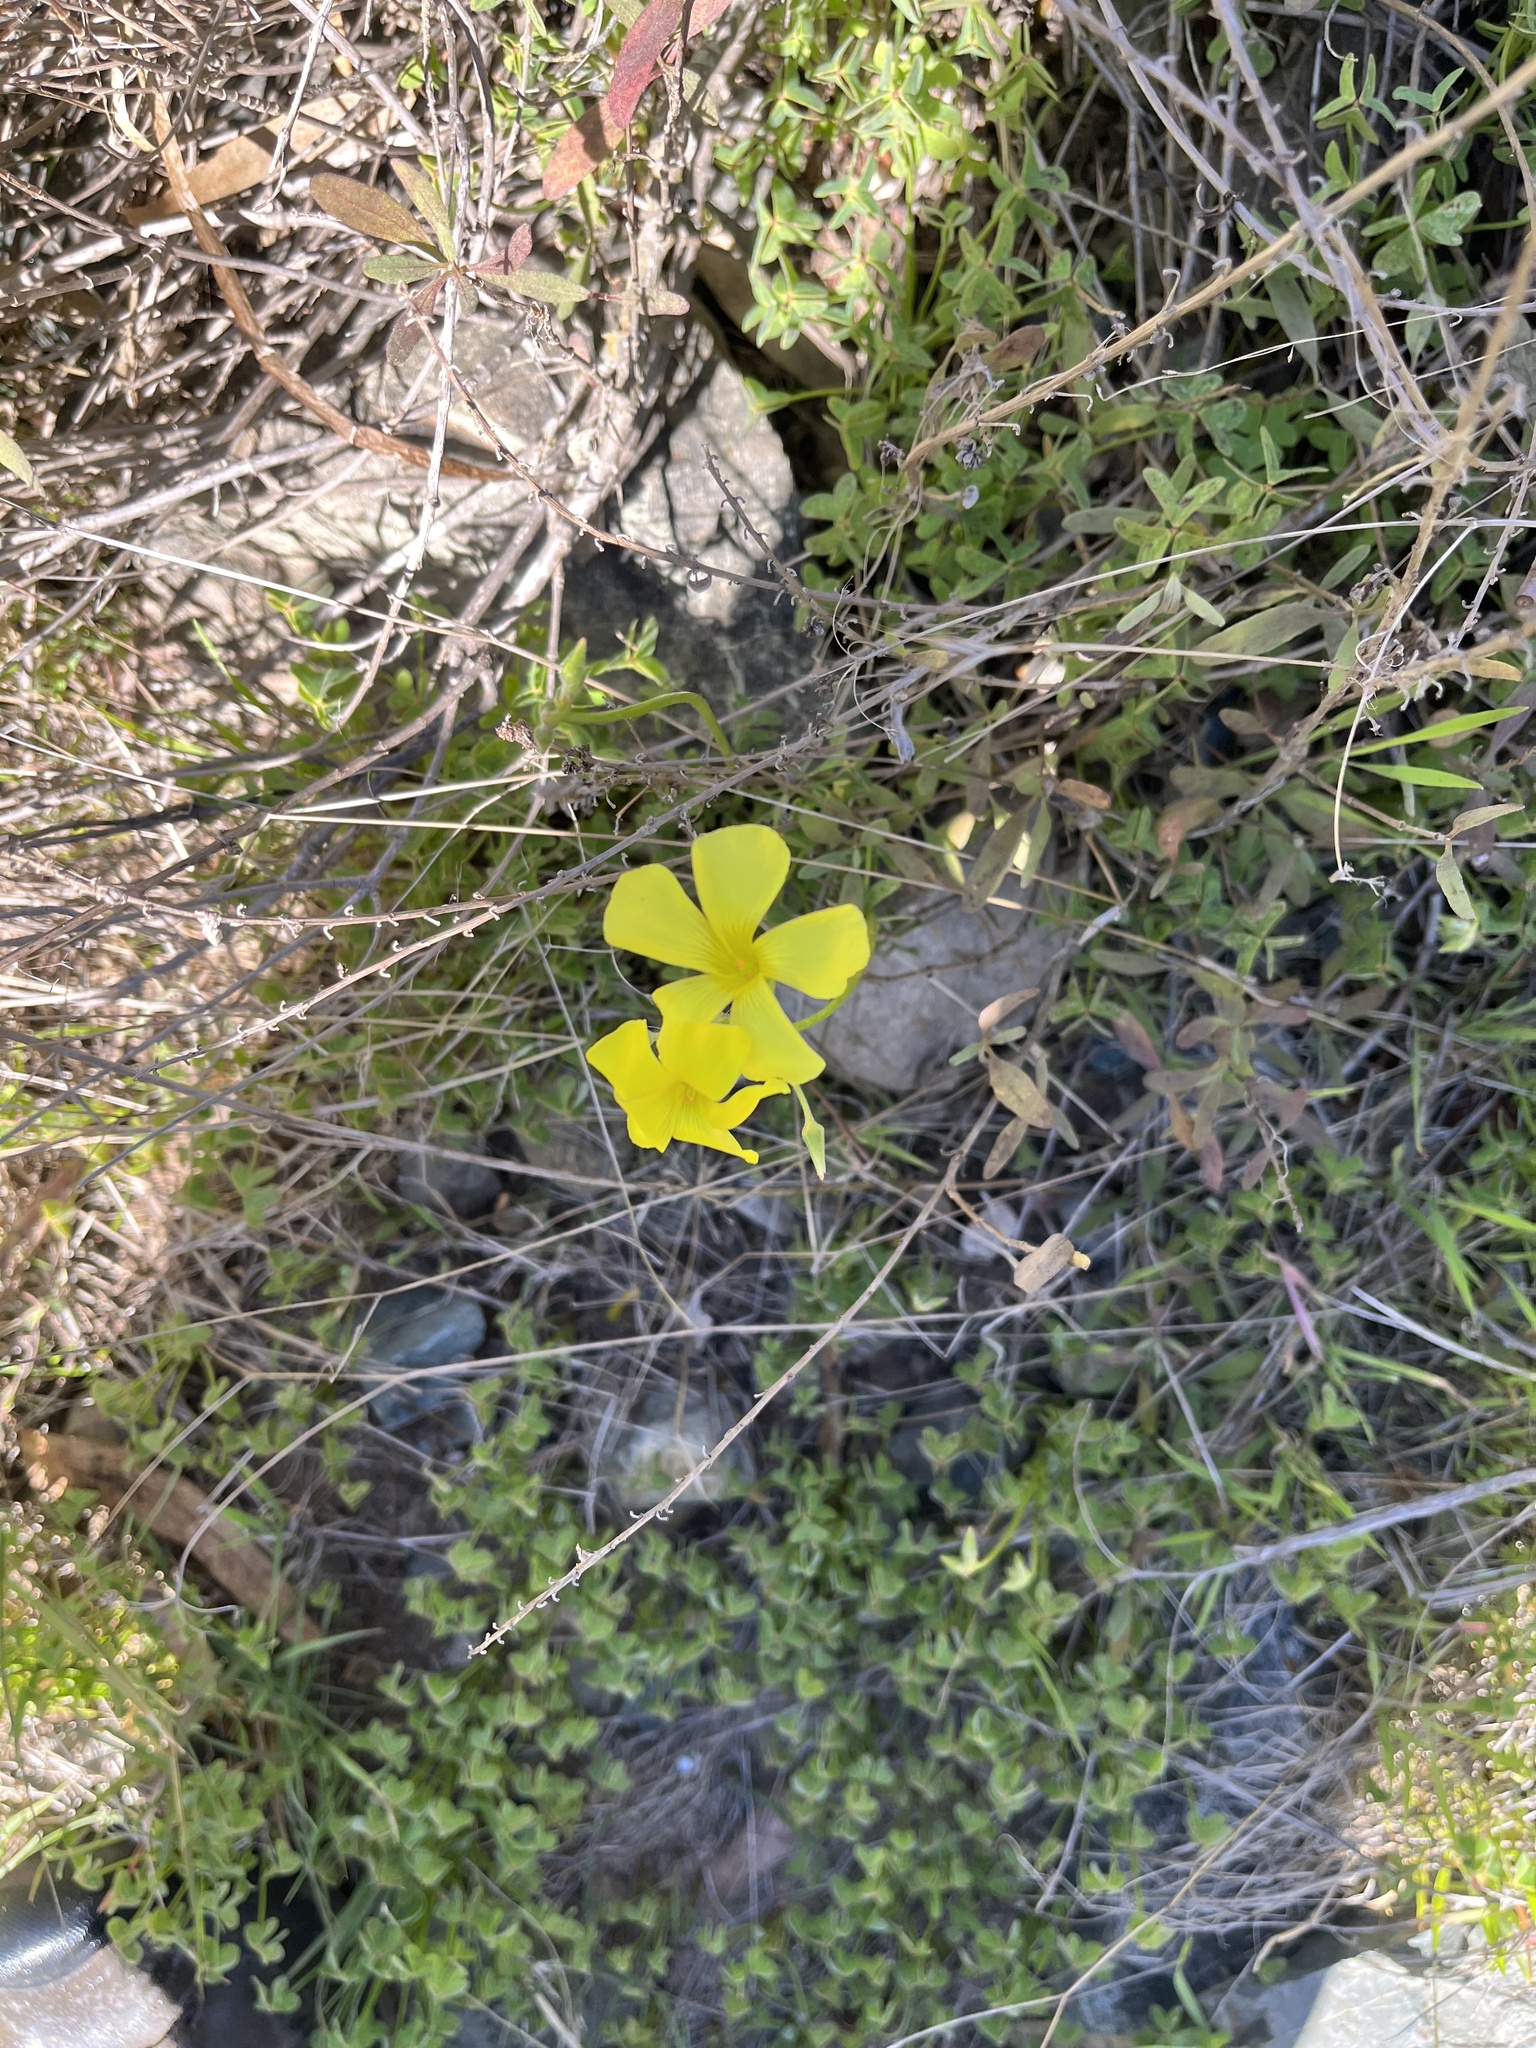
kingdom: Plantae
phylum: Tracheophyta
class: Magnoliopsida
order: Oxalidales
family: Oxalidaceae
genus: Oxalis
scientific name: Oxalis pes-caprae
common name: Bermuda-buttercup
